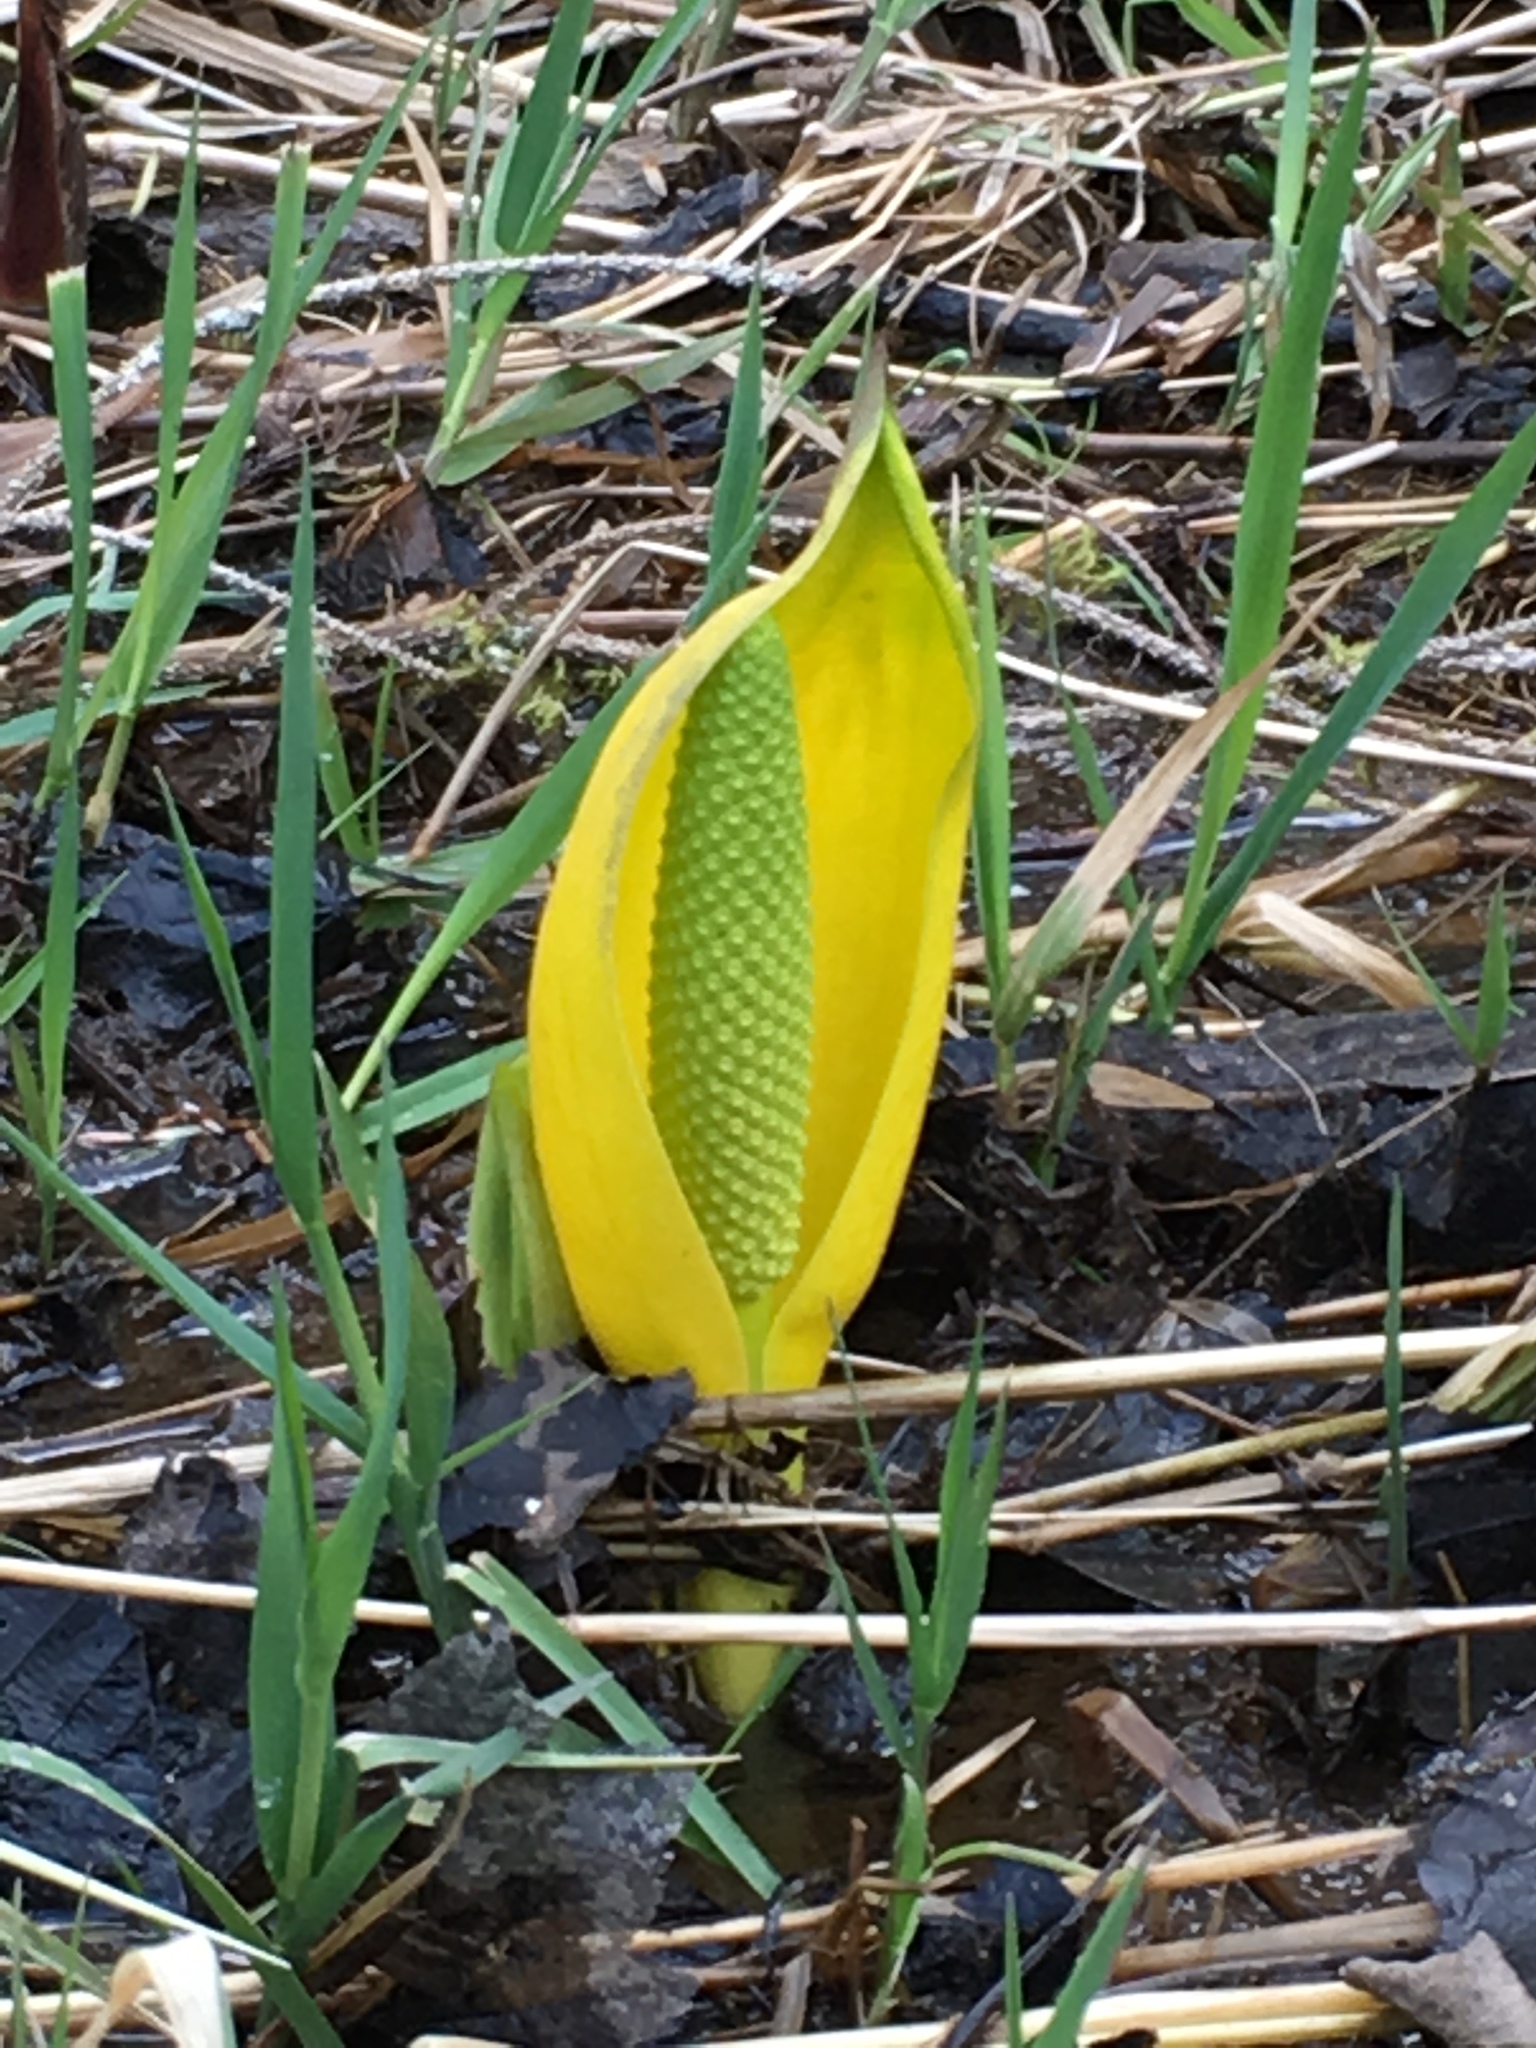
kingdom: Plantae
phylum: Tracheophyta
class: Liliopsida
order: Alismatales
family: Araceae
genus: Lysichiton
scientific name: Lysichiton americanus
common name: American skunk cabbage
